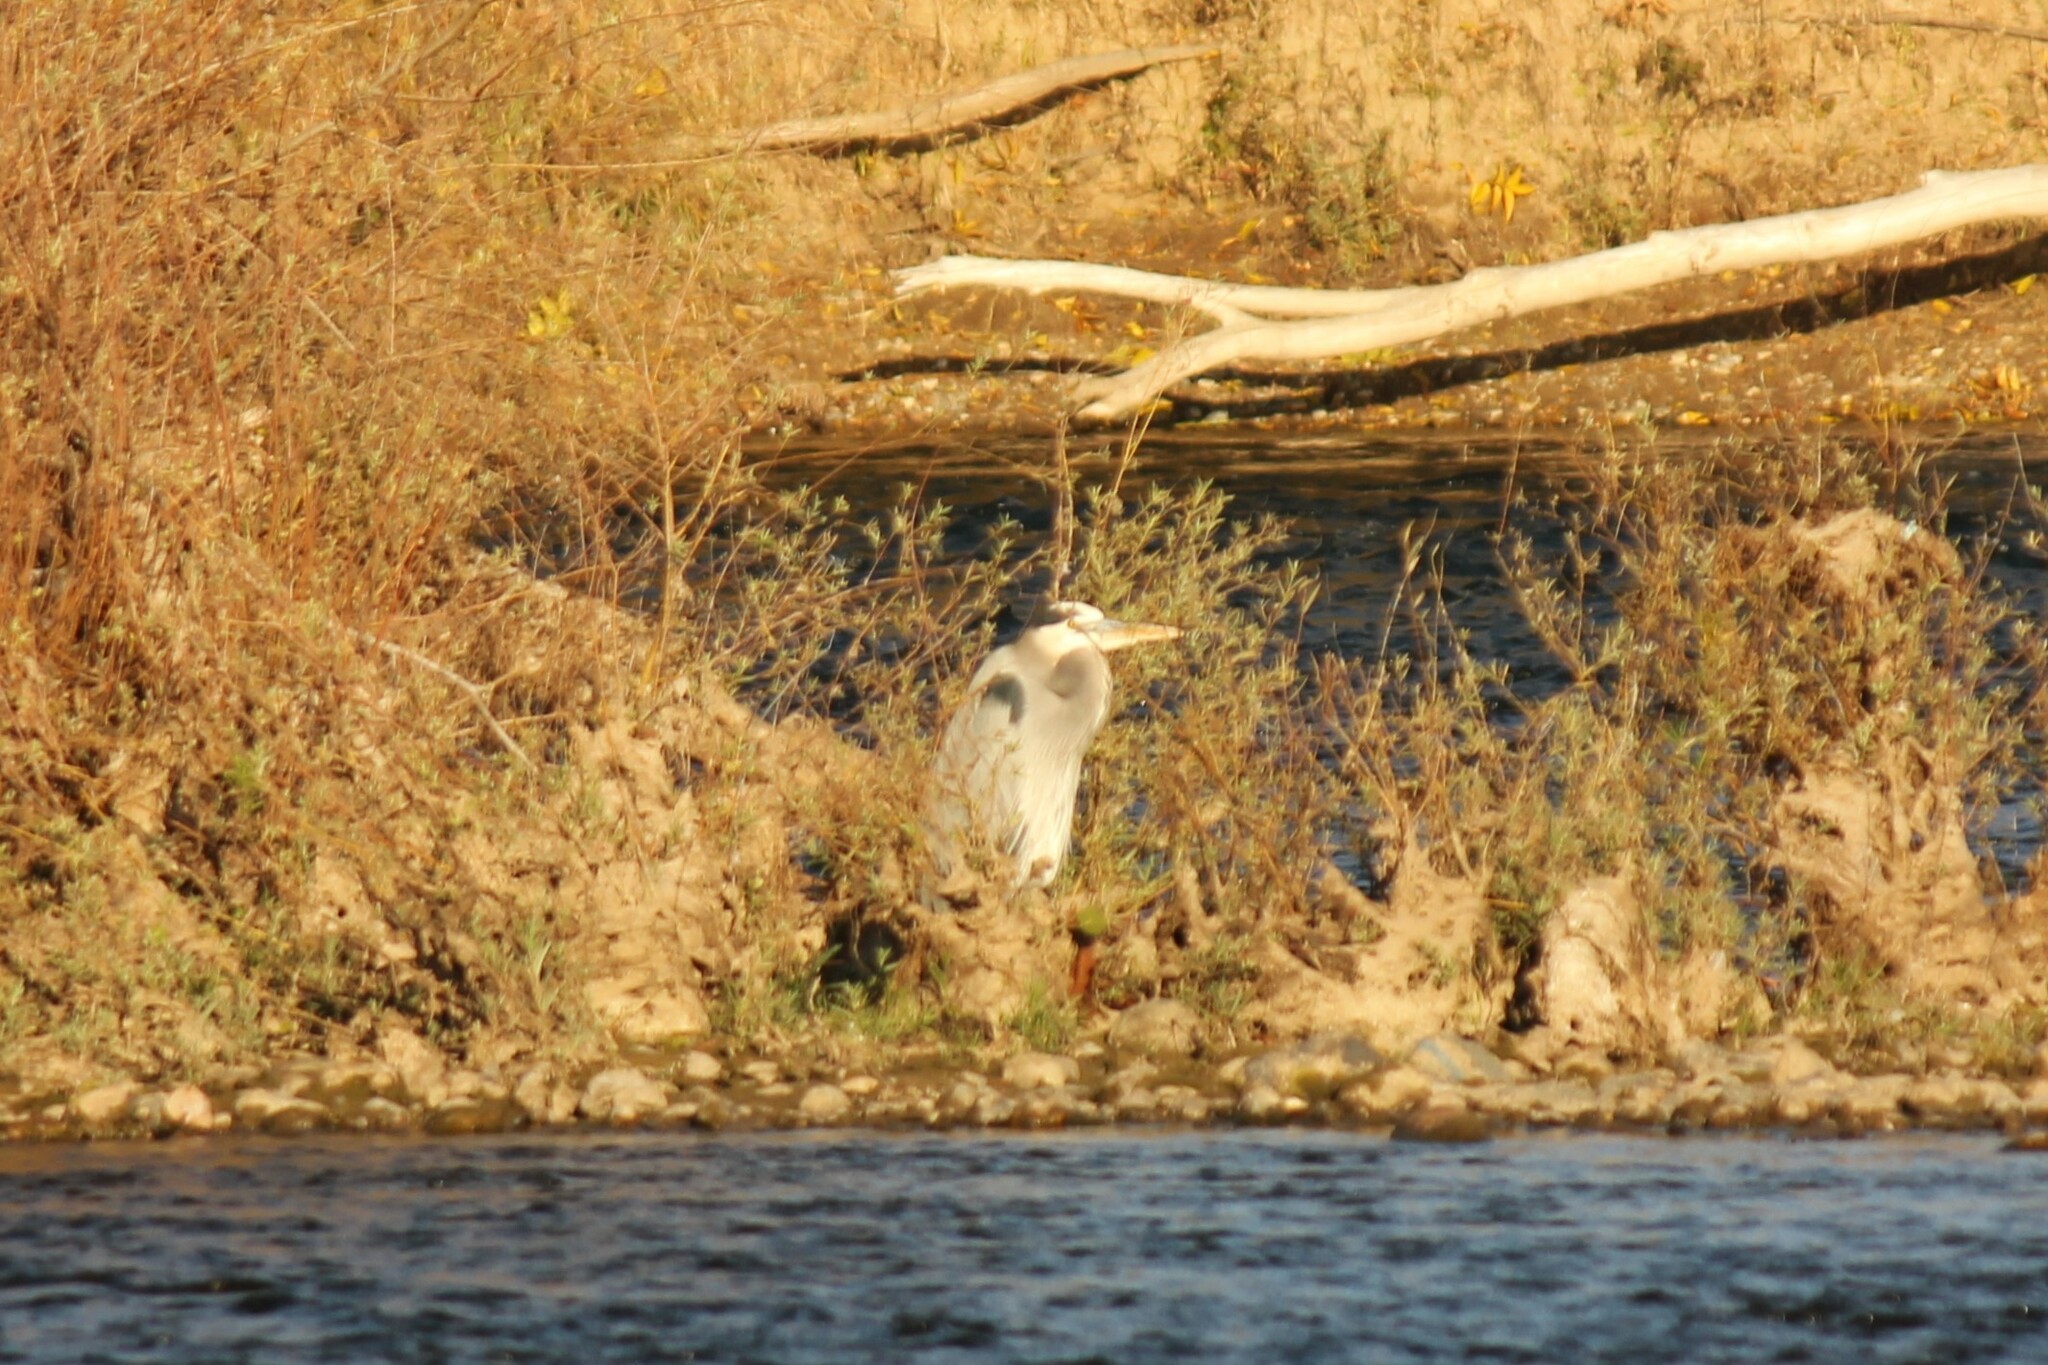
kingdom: Animalia
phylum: Chordata
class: Aves
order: Pelecaniformes
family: Ardeidae
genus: Ardea
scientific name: Ardea herodias
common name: Great blue heron
